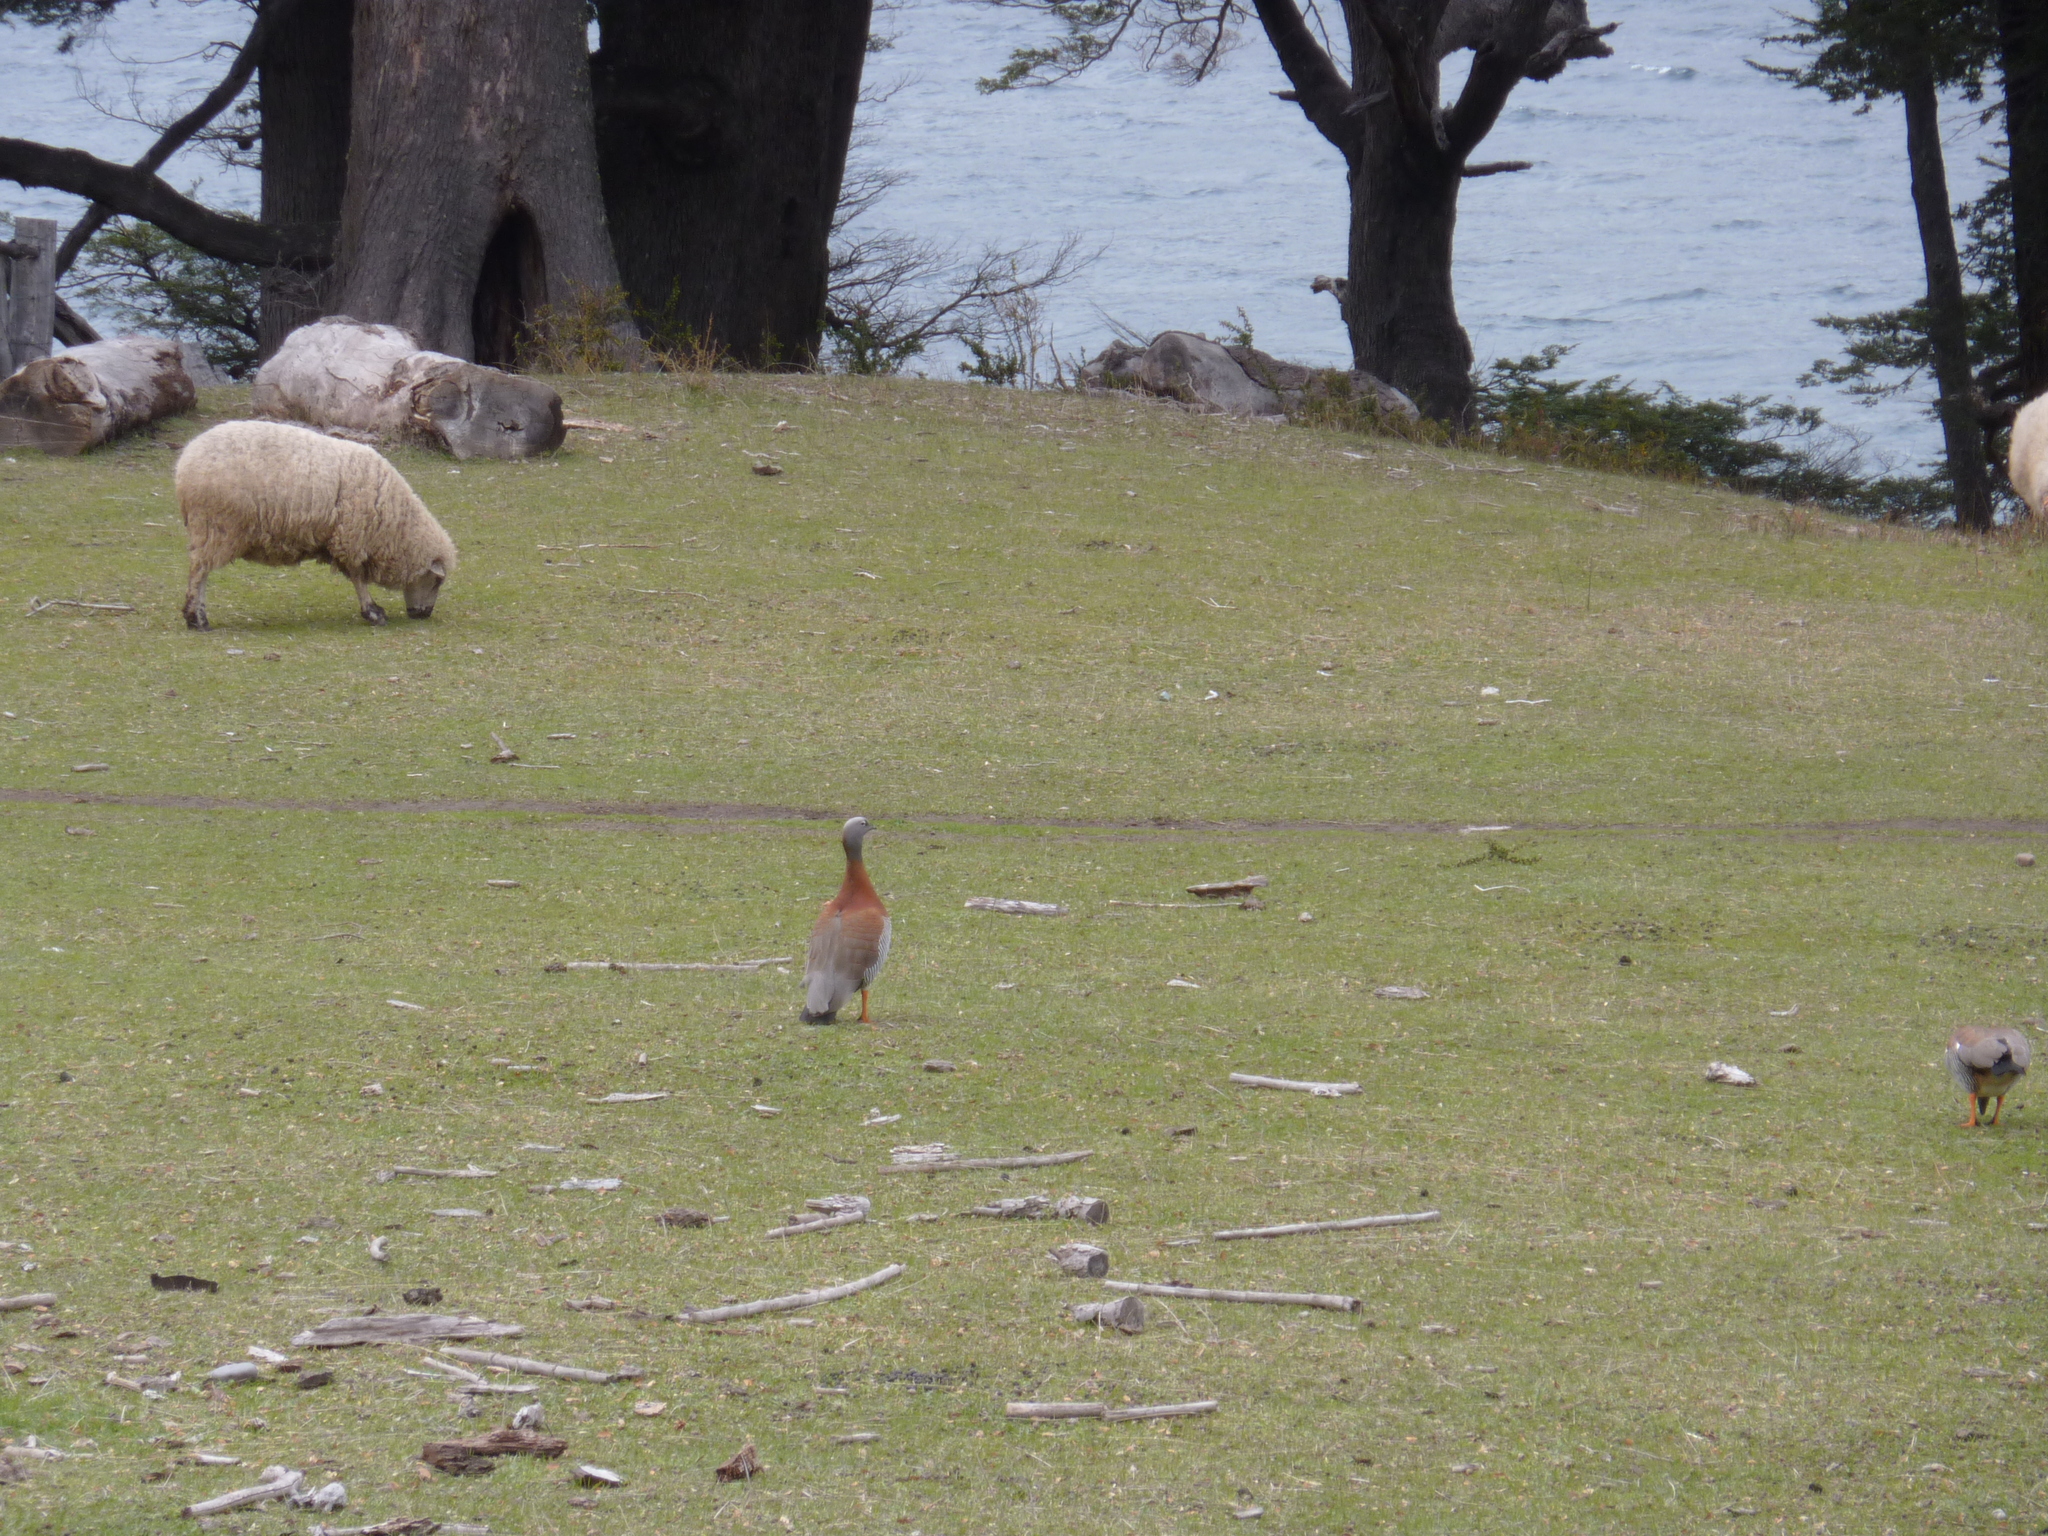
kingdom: Animalia
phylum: Chordata
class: Aves
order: Anseriformes
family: Anatidae
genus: Chloephaga
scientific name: Chloephaga poliocephala
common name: Ashy-headed goose
